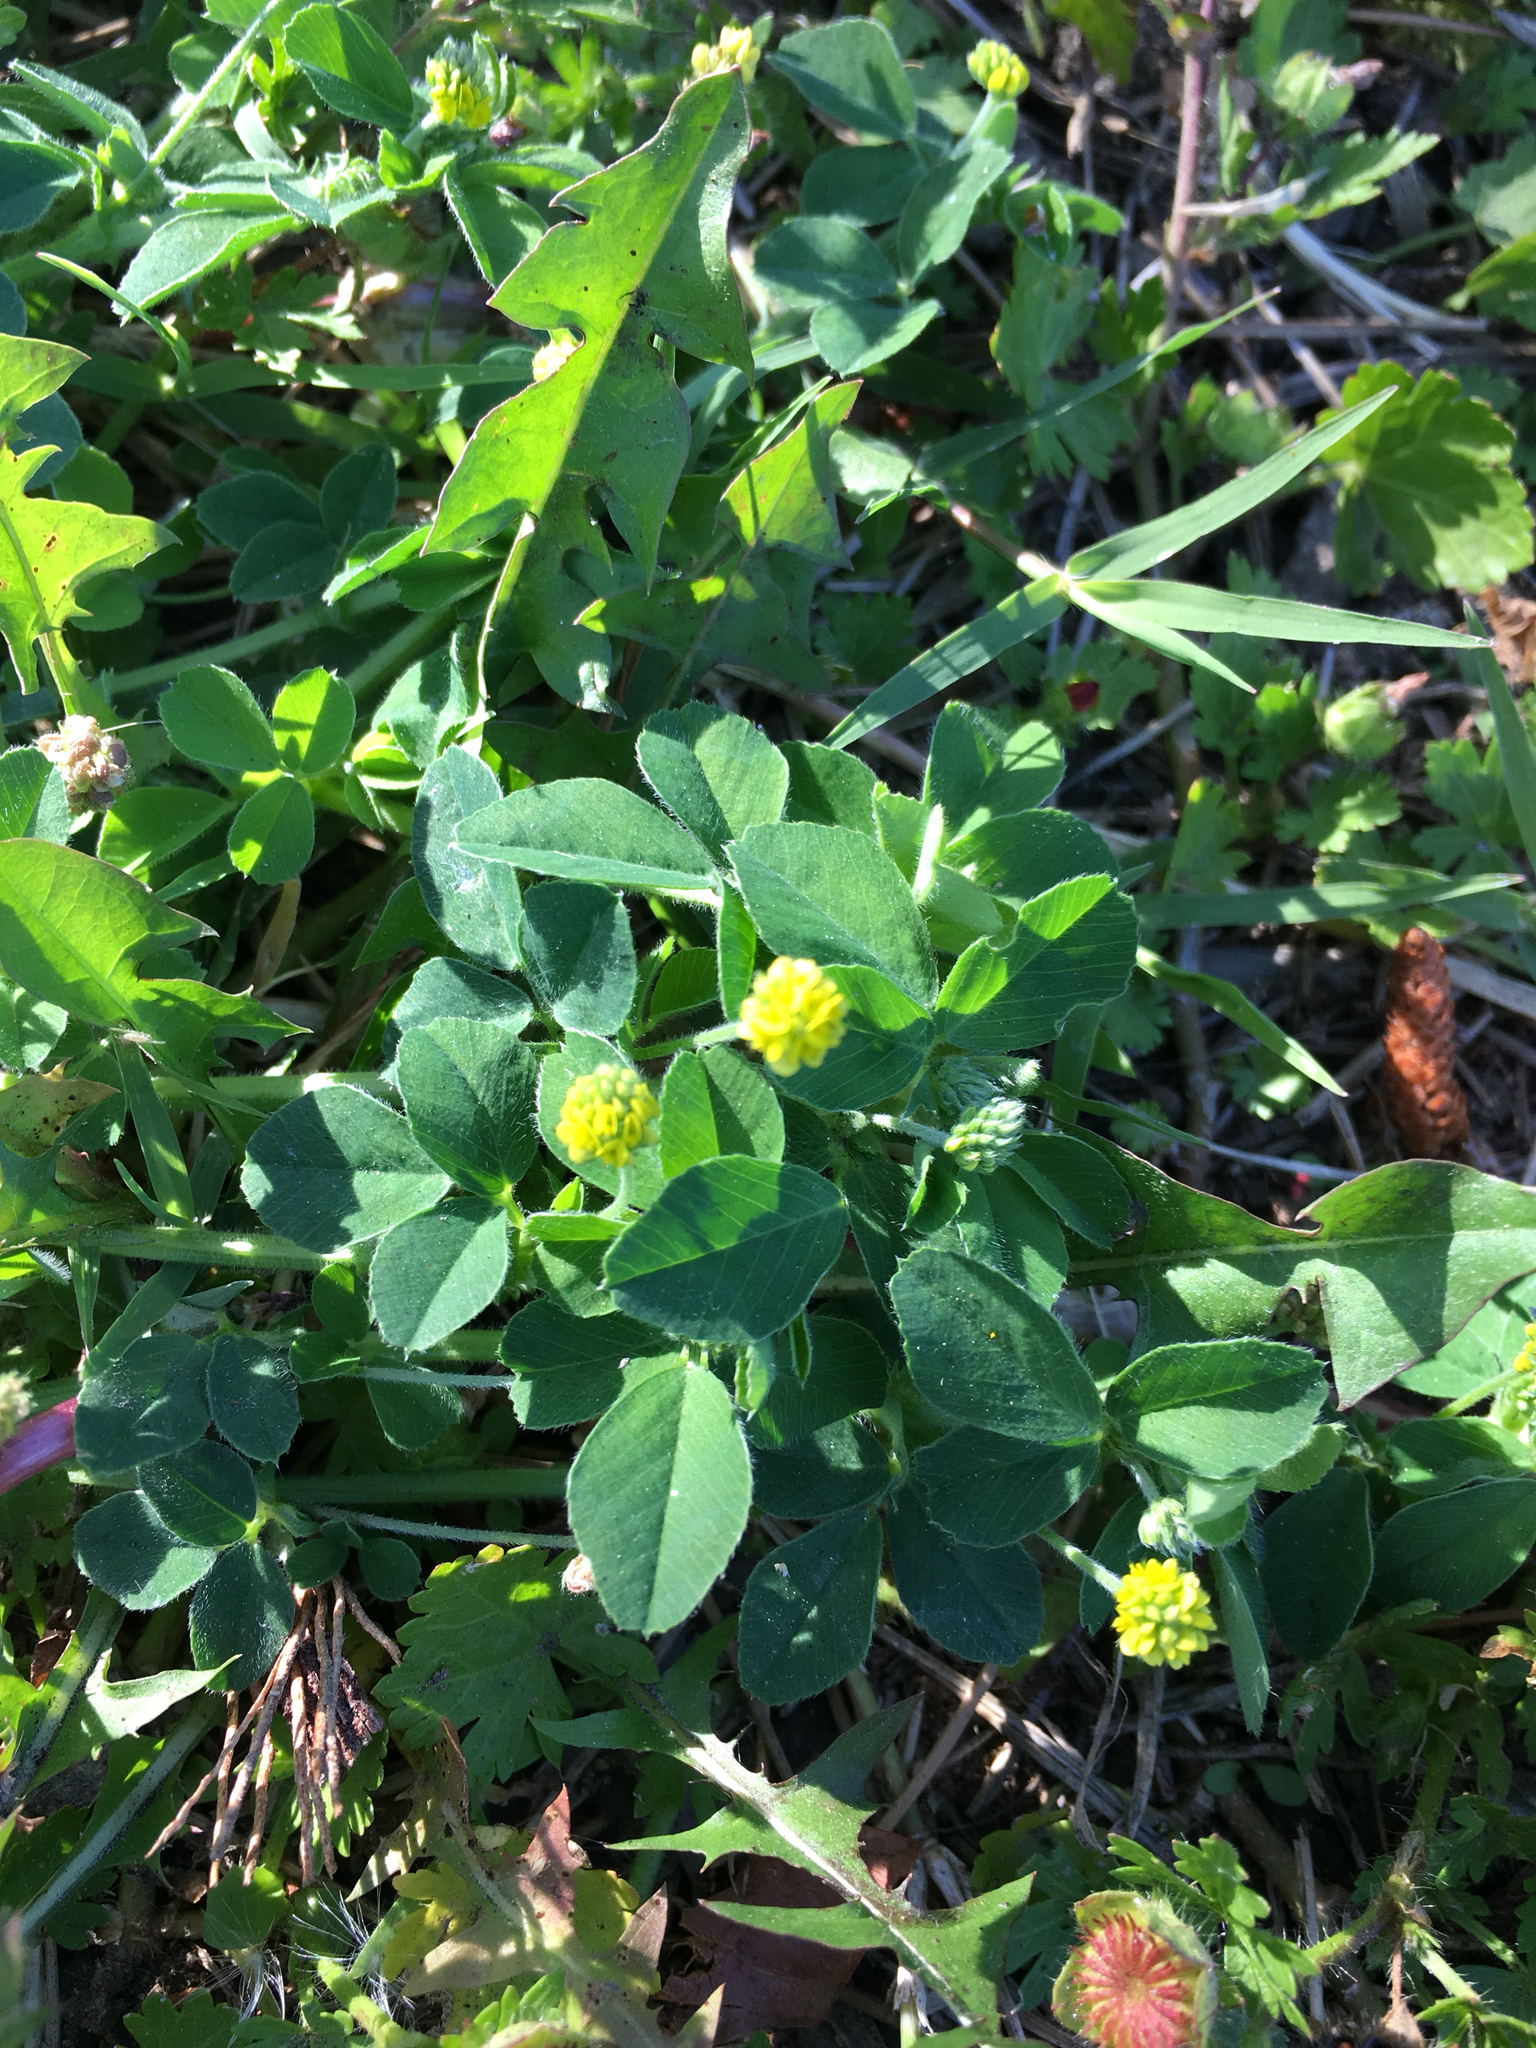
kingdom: Plantae
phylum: Tracheophyta
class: Magnoliopsida
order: Fabales
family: Fabaceae
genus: Medicago
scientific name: Medicago lupulina
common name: Black medick
